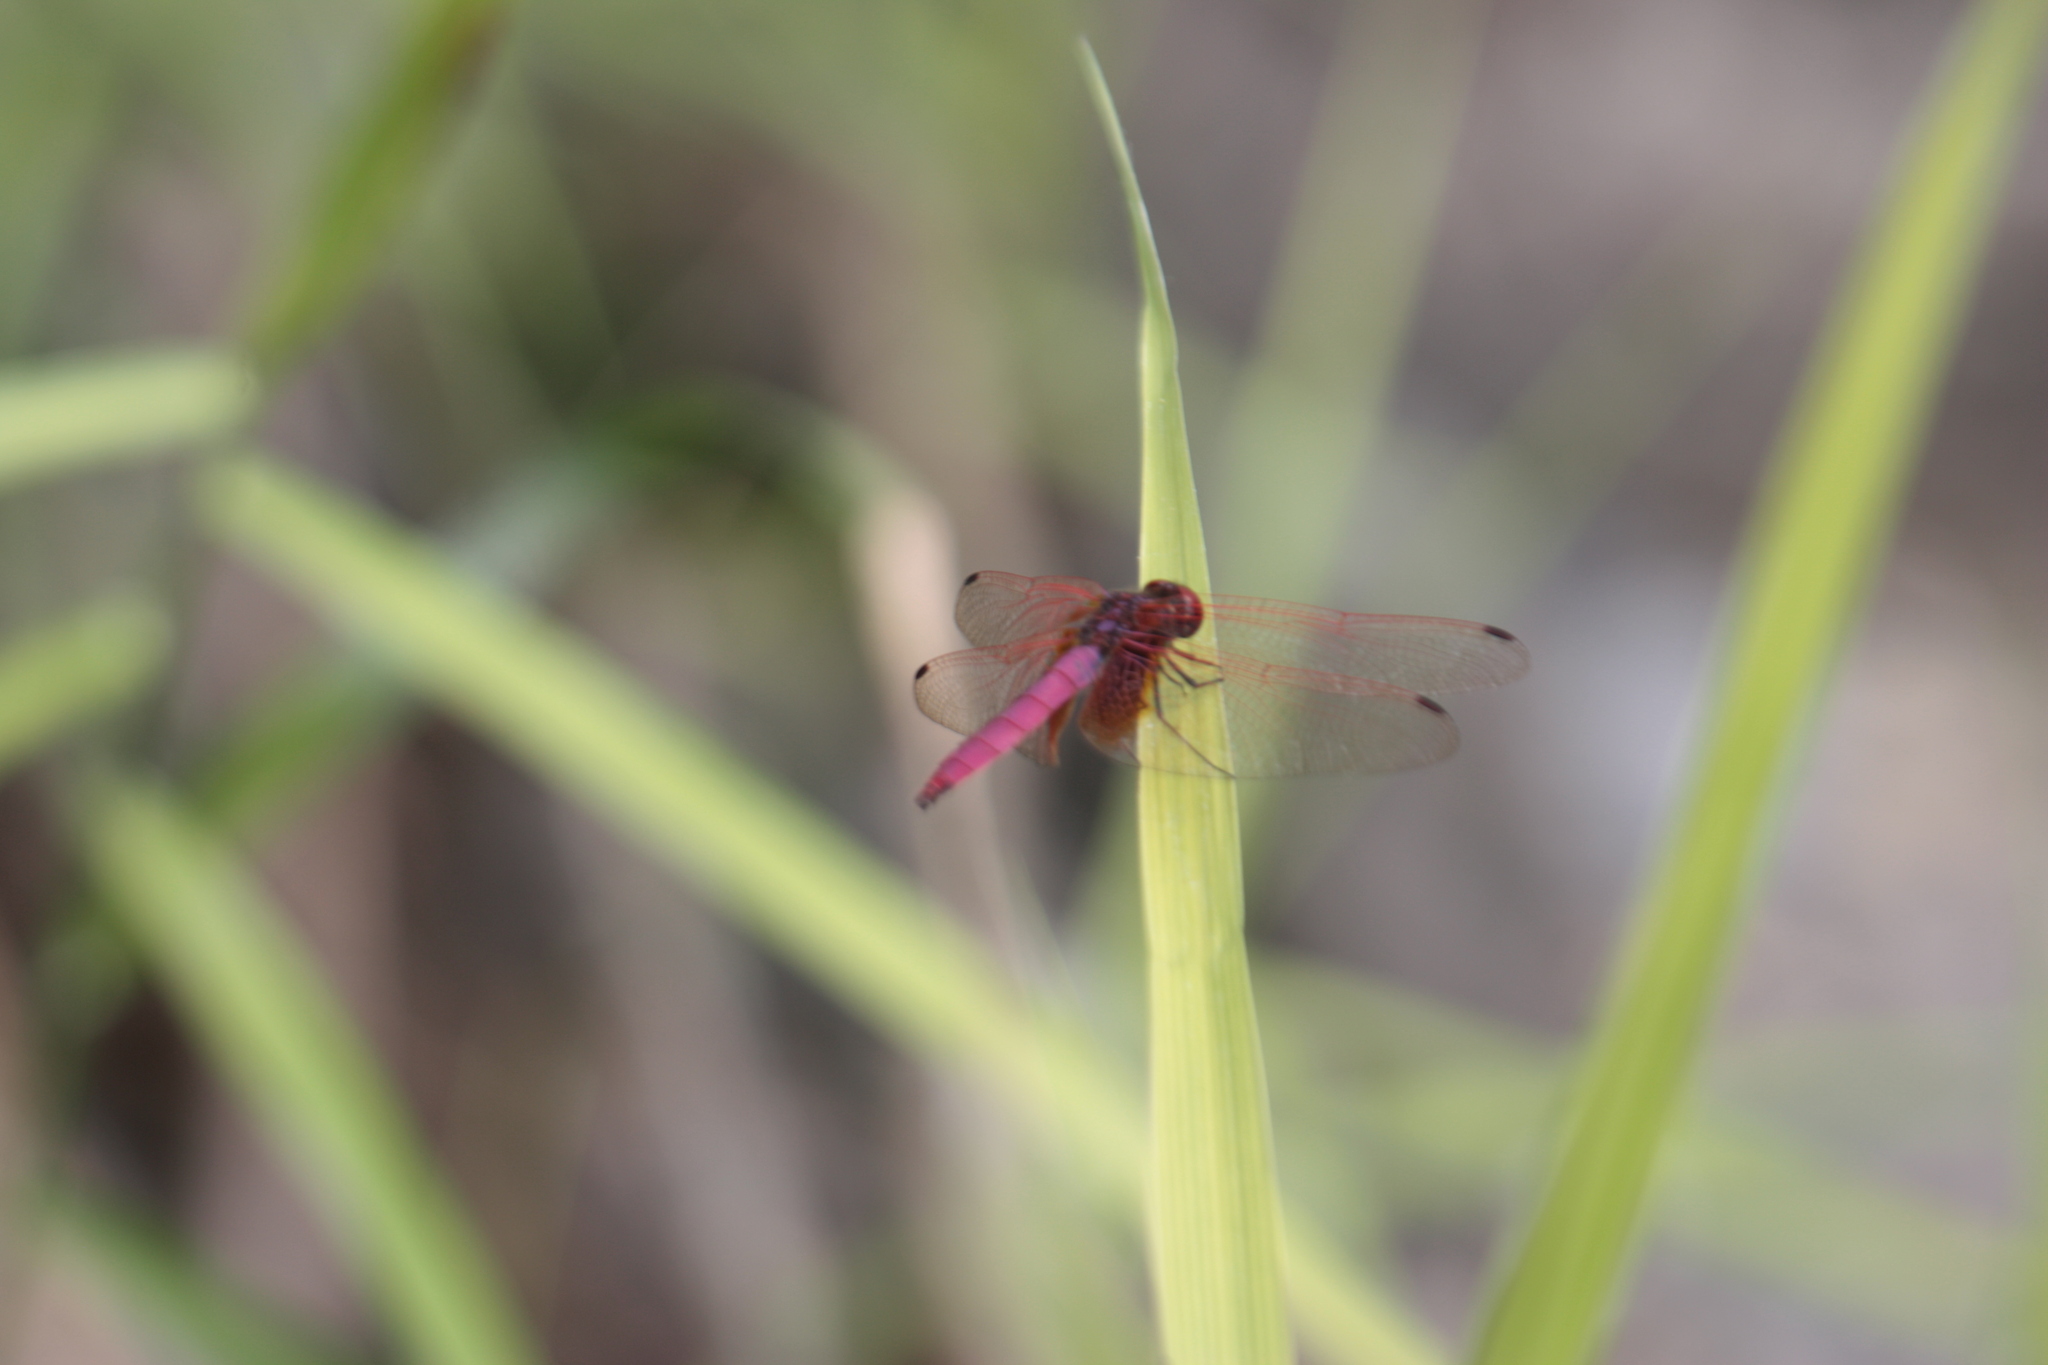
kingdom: Animalia
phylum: Arthropoda
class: Insecta
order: Odonata
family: Libellulidae
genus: Trithemis
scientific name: Trithemis aurora
